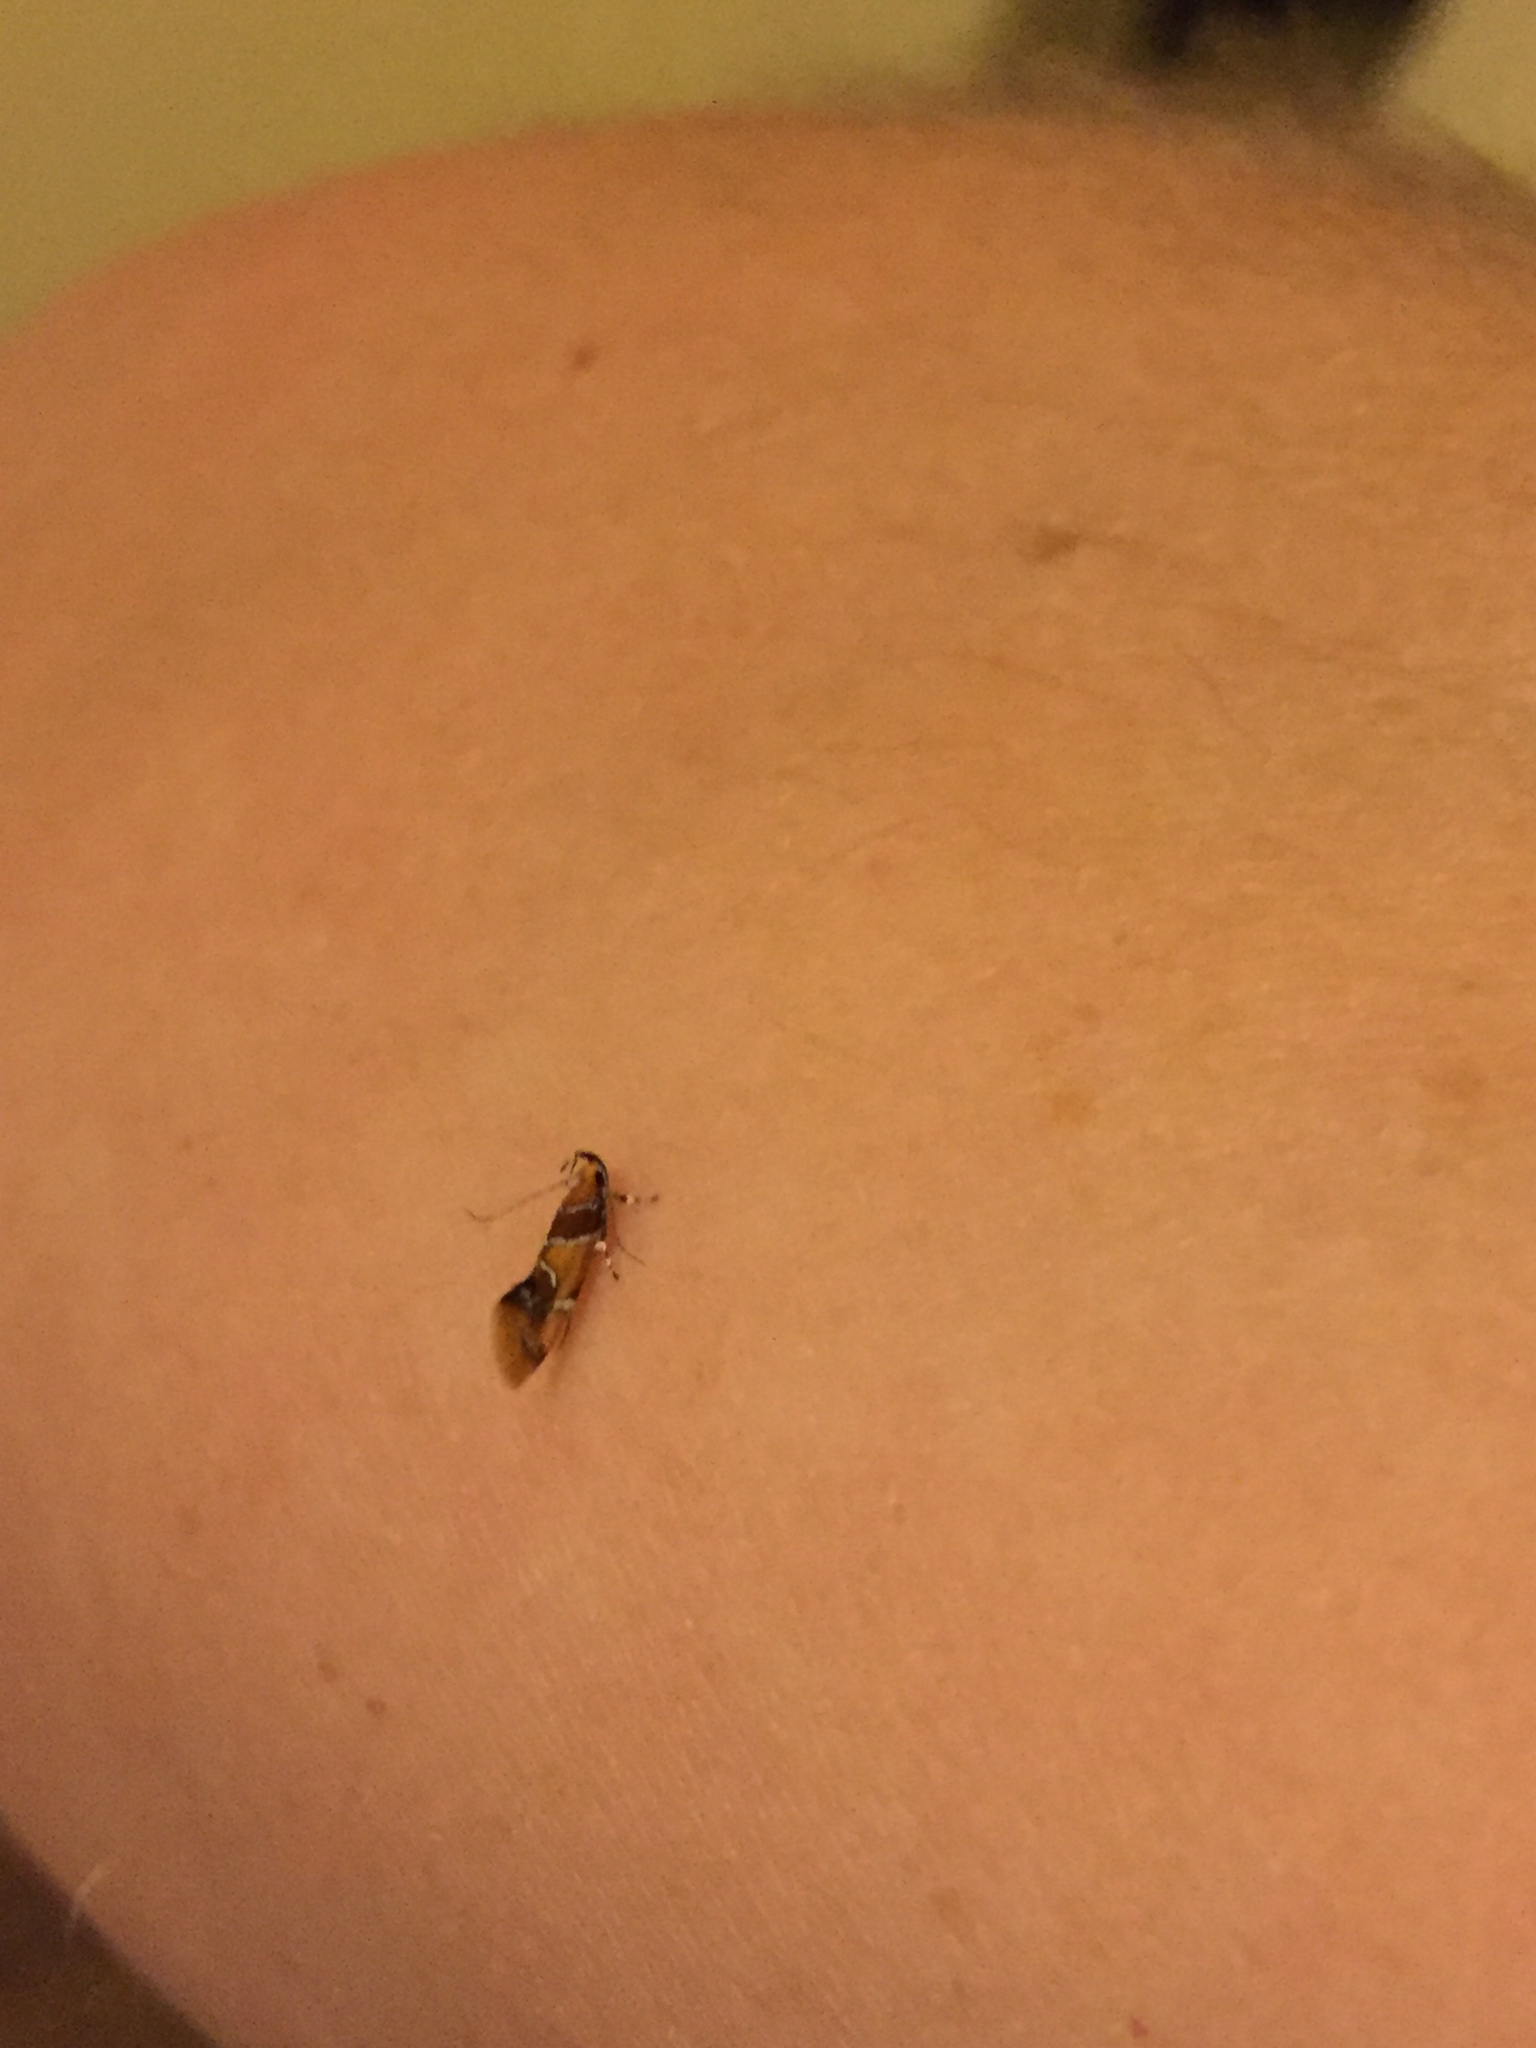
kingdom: Animalia
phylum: Arthropoda
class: Insecta
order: Lepidoptera
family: Oecophoridae
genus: Callima
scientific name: Callima argenticinctella
